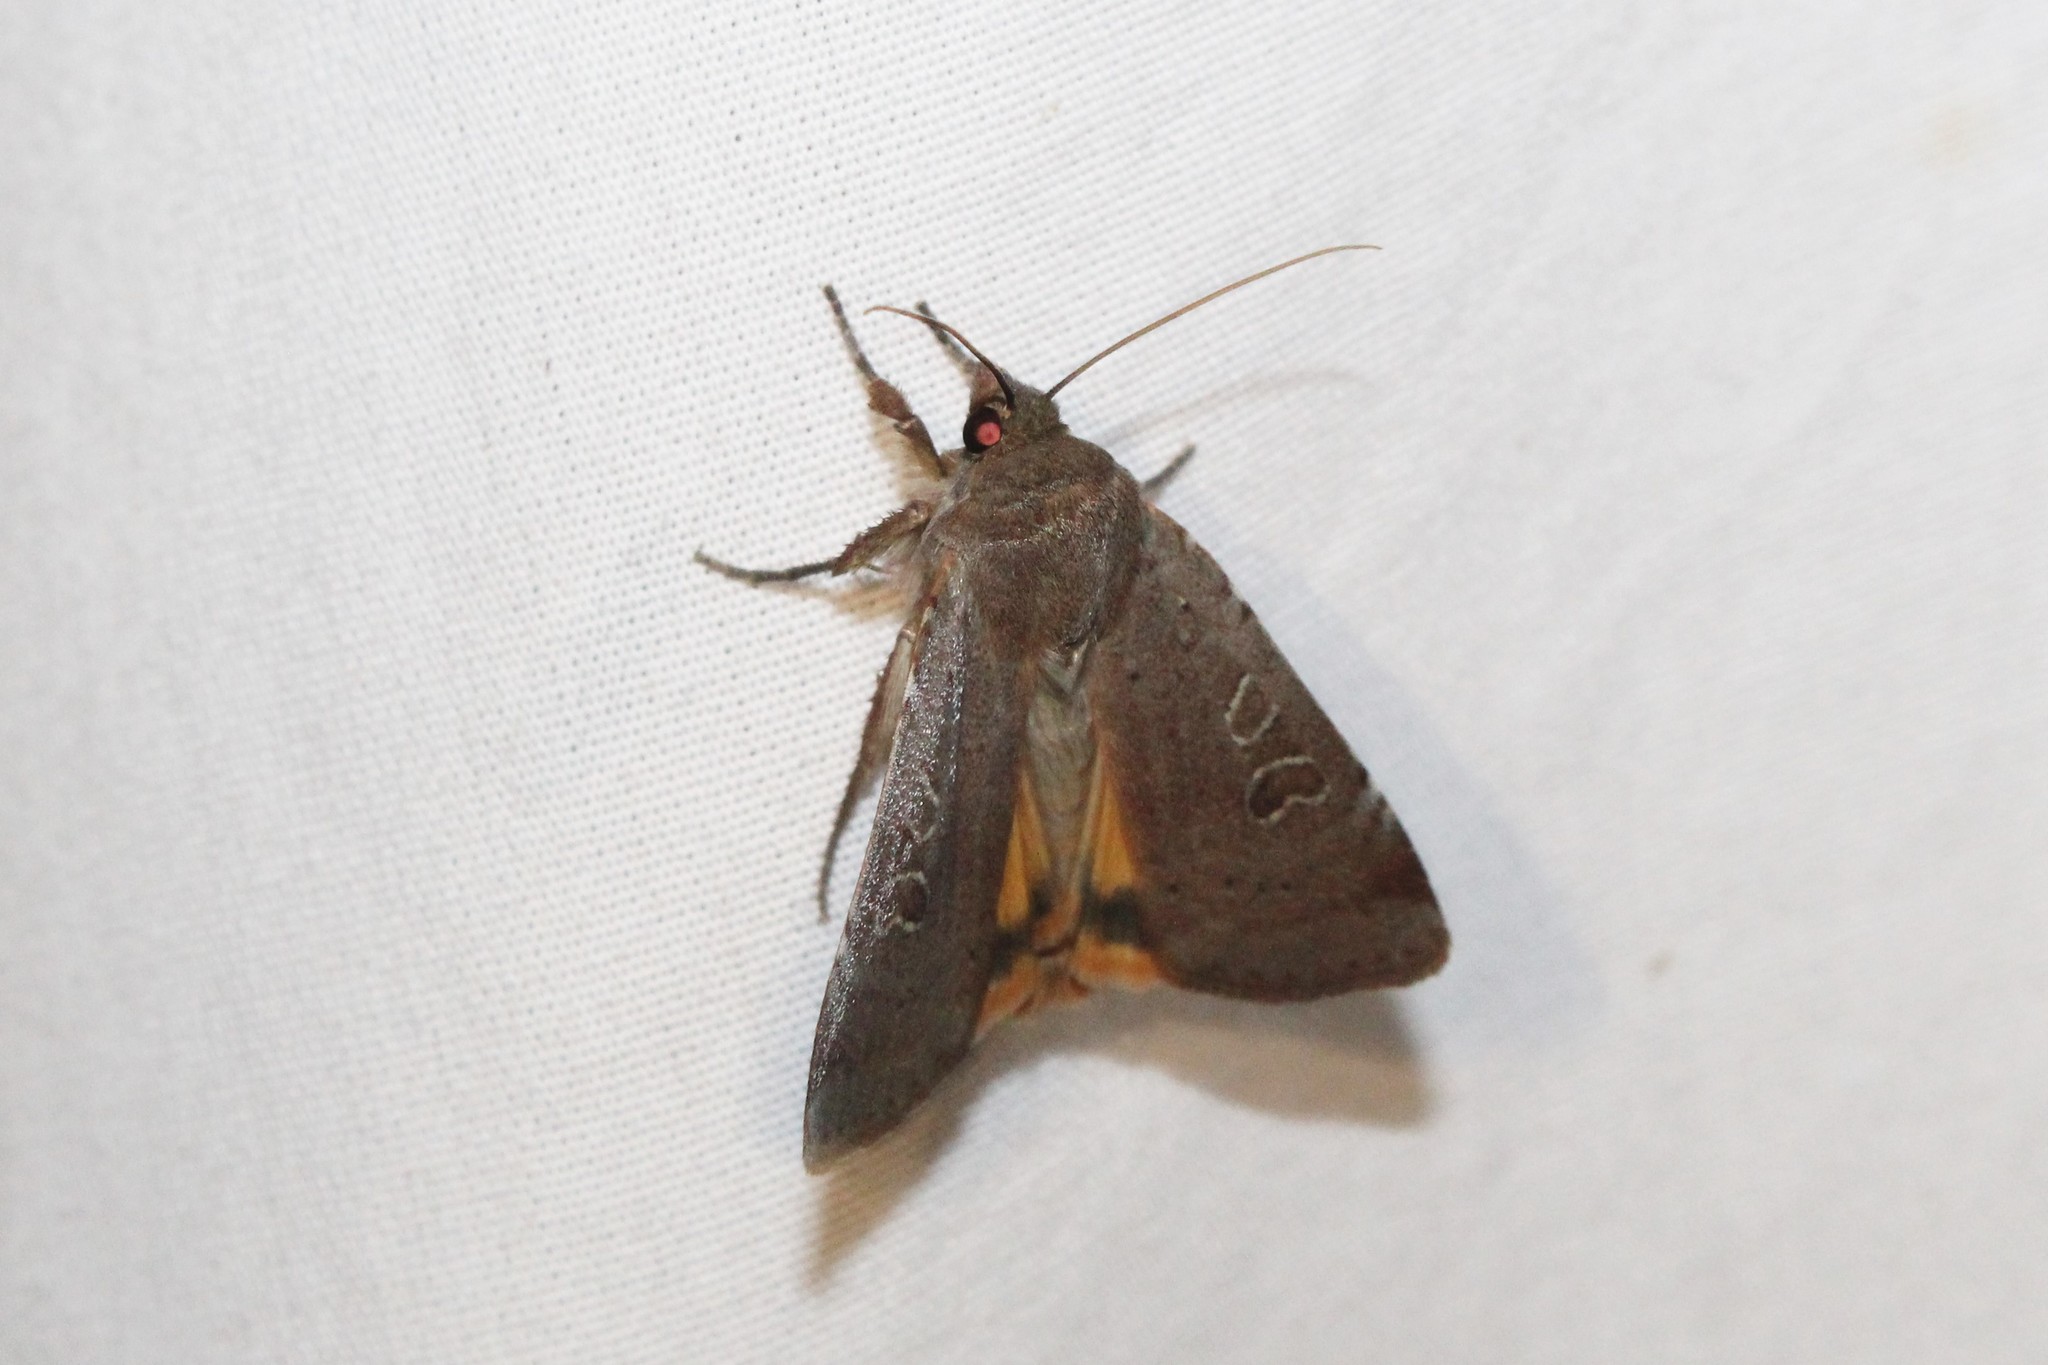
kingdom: Animalia
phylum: Arthropoda
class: Insecta
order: Lepidoptera
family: Noctuidae
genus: Noctua
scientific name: Noctua comes
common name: Lesser yellow underwing
